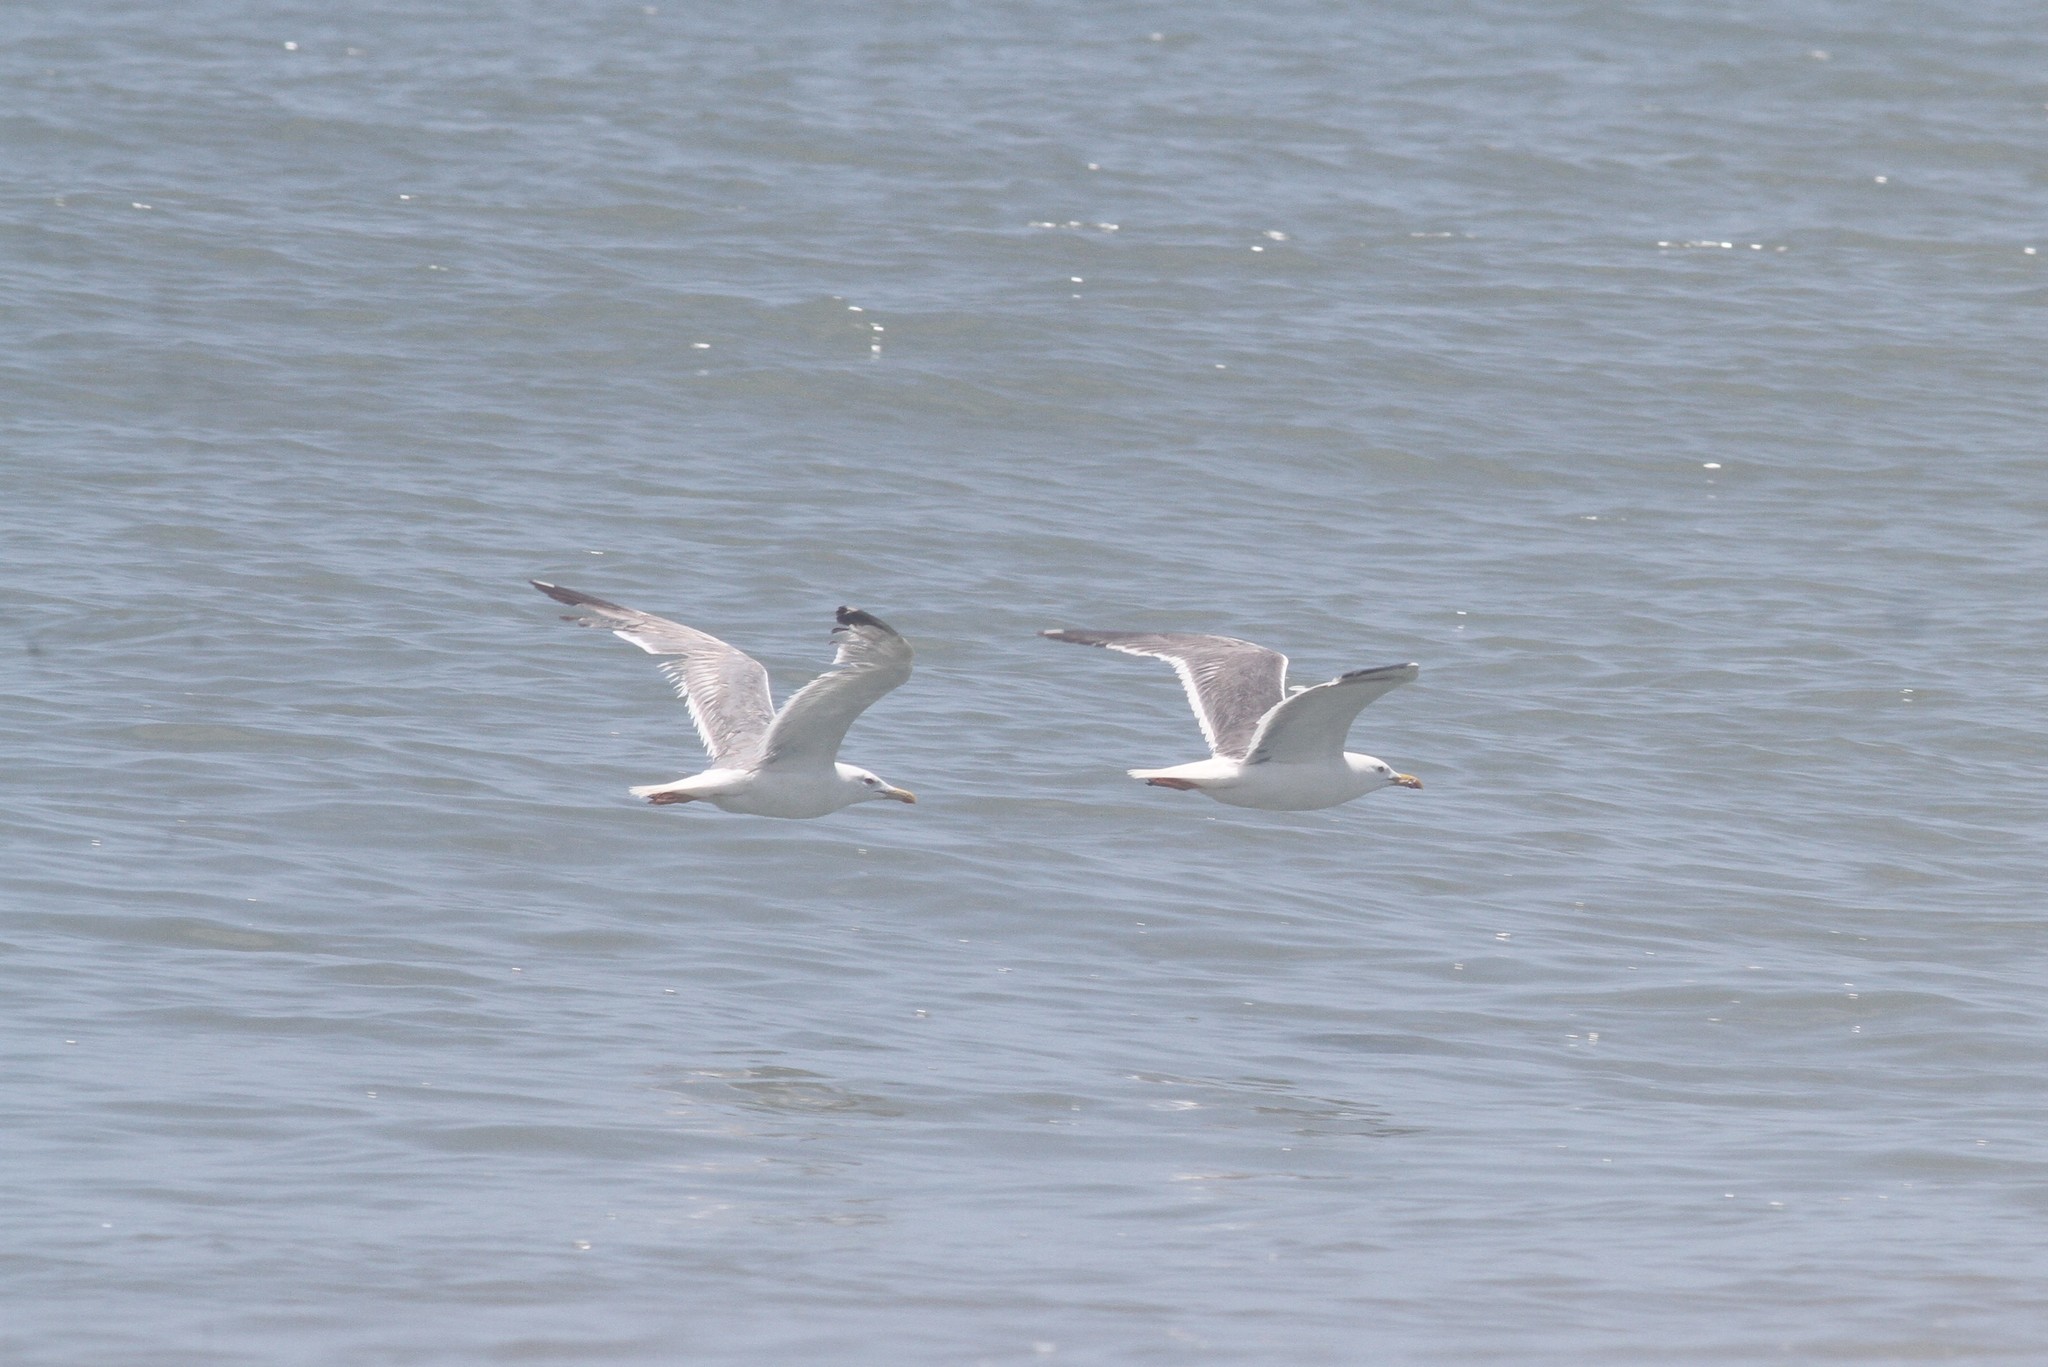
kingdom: Animalia
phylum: Chordata
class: Aves
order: Charadriiformes
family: Laridae
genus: Larus
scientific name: Larus fuscus
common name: Lesser black-backed gull
